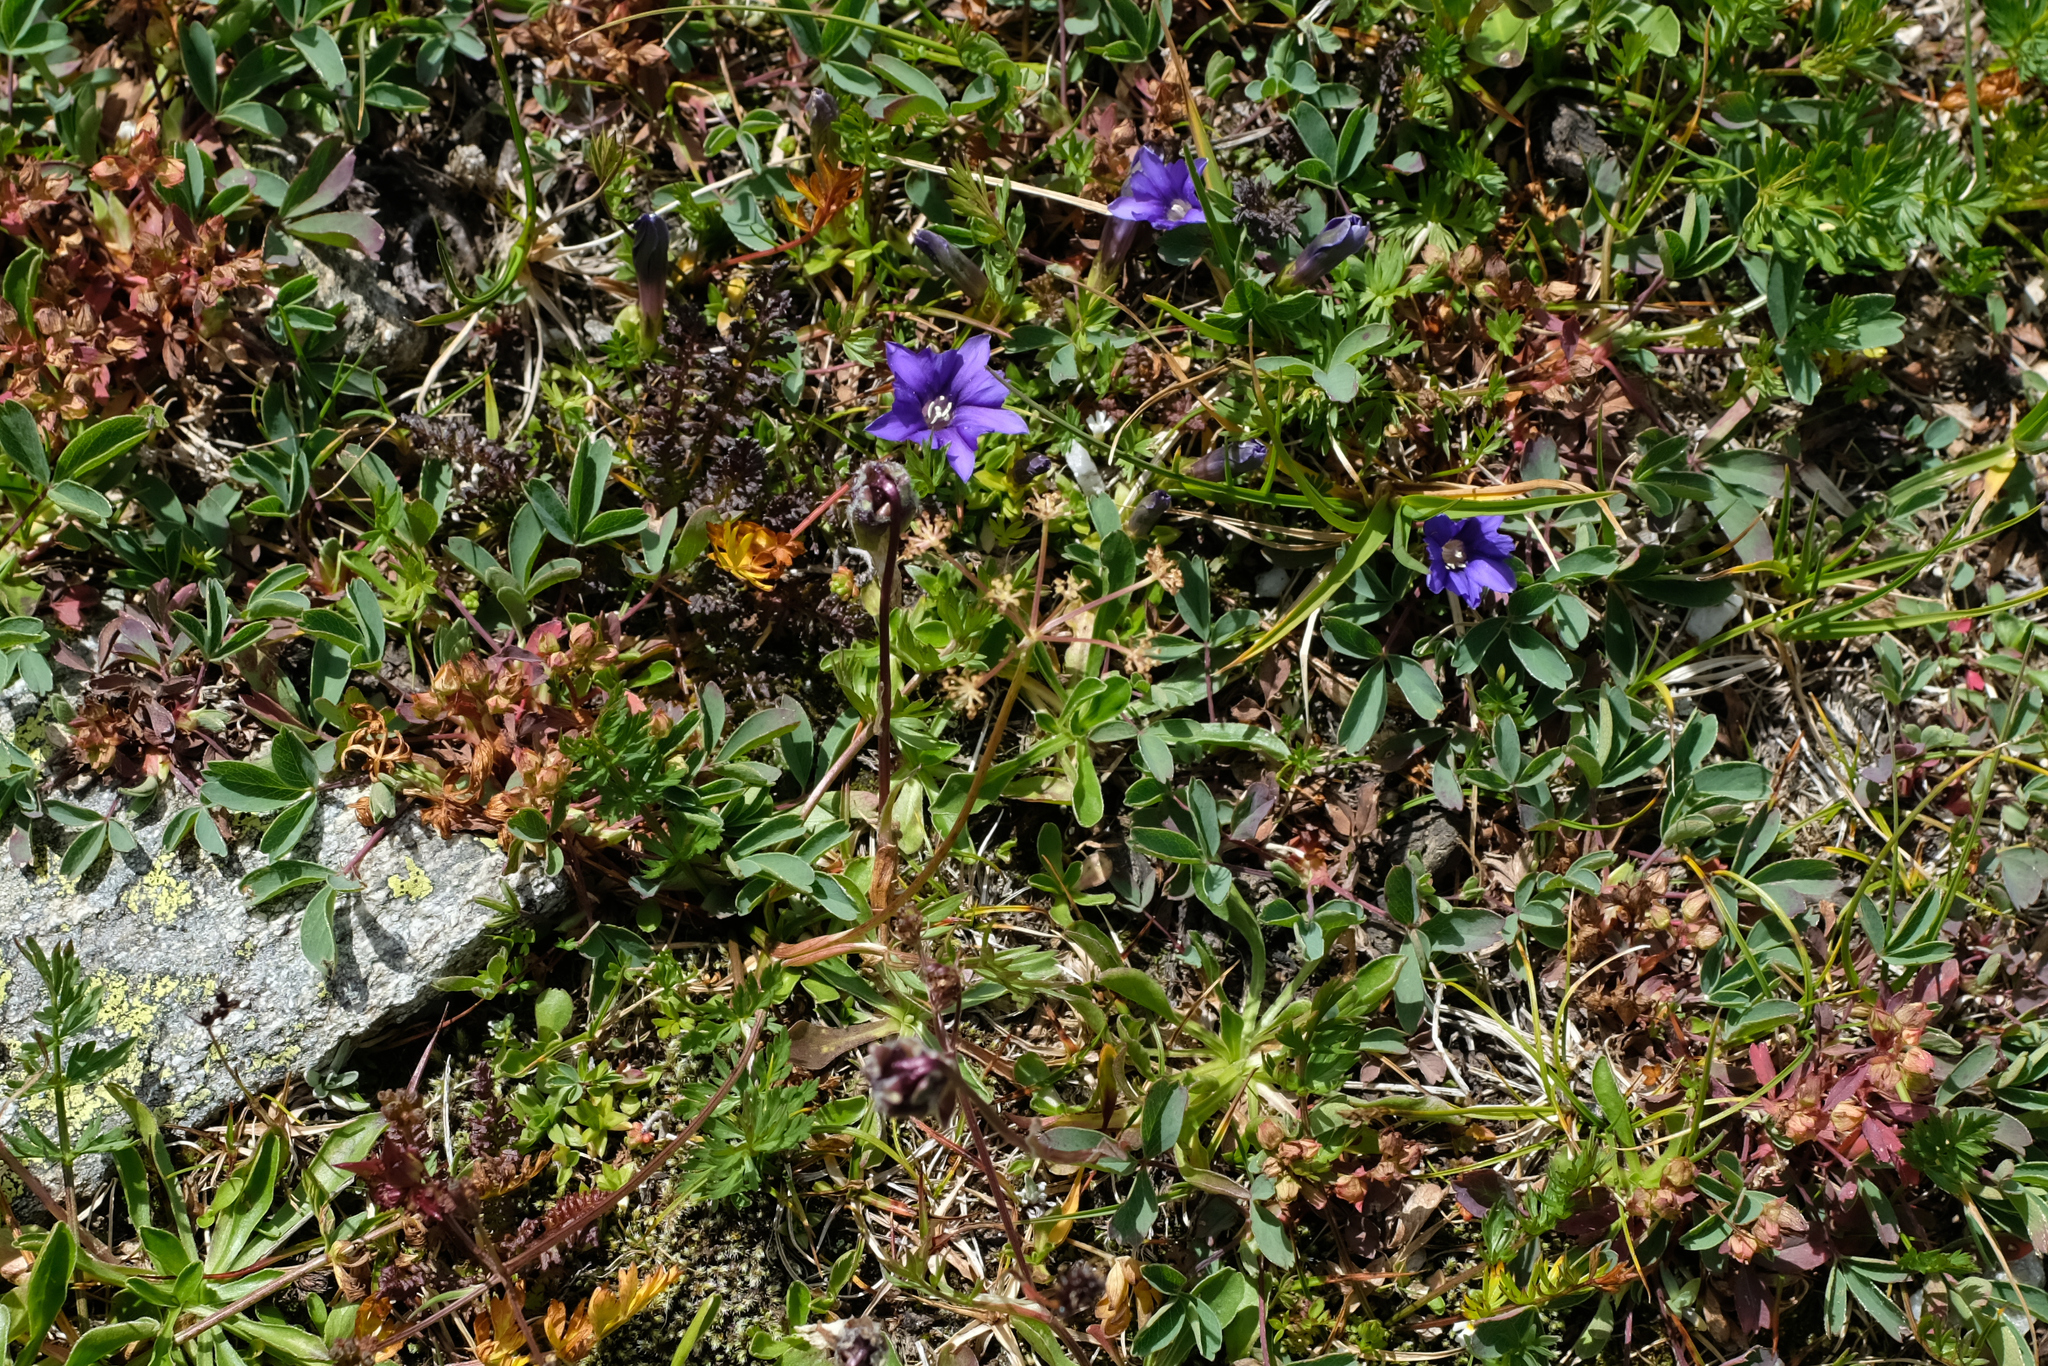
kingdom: Plantae
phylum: Tracheophyta
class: Magnoliopsida
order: Gentianales
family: Gentianaceae
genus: Gentiana
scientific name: Gentiana dshimilensis
